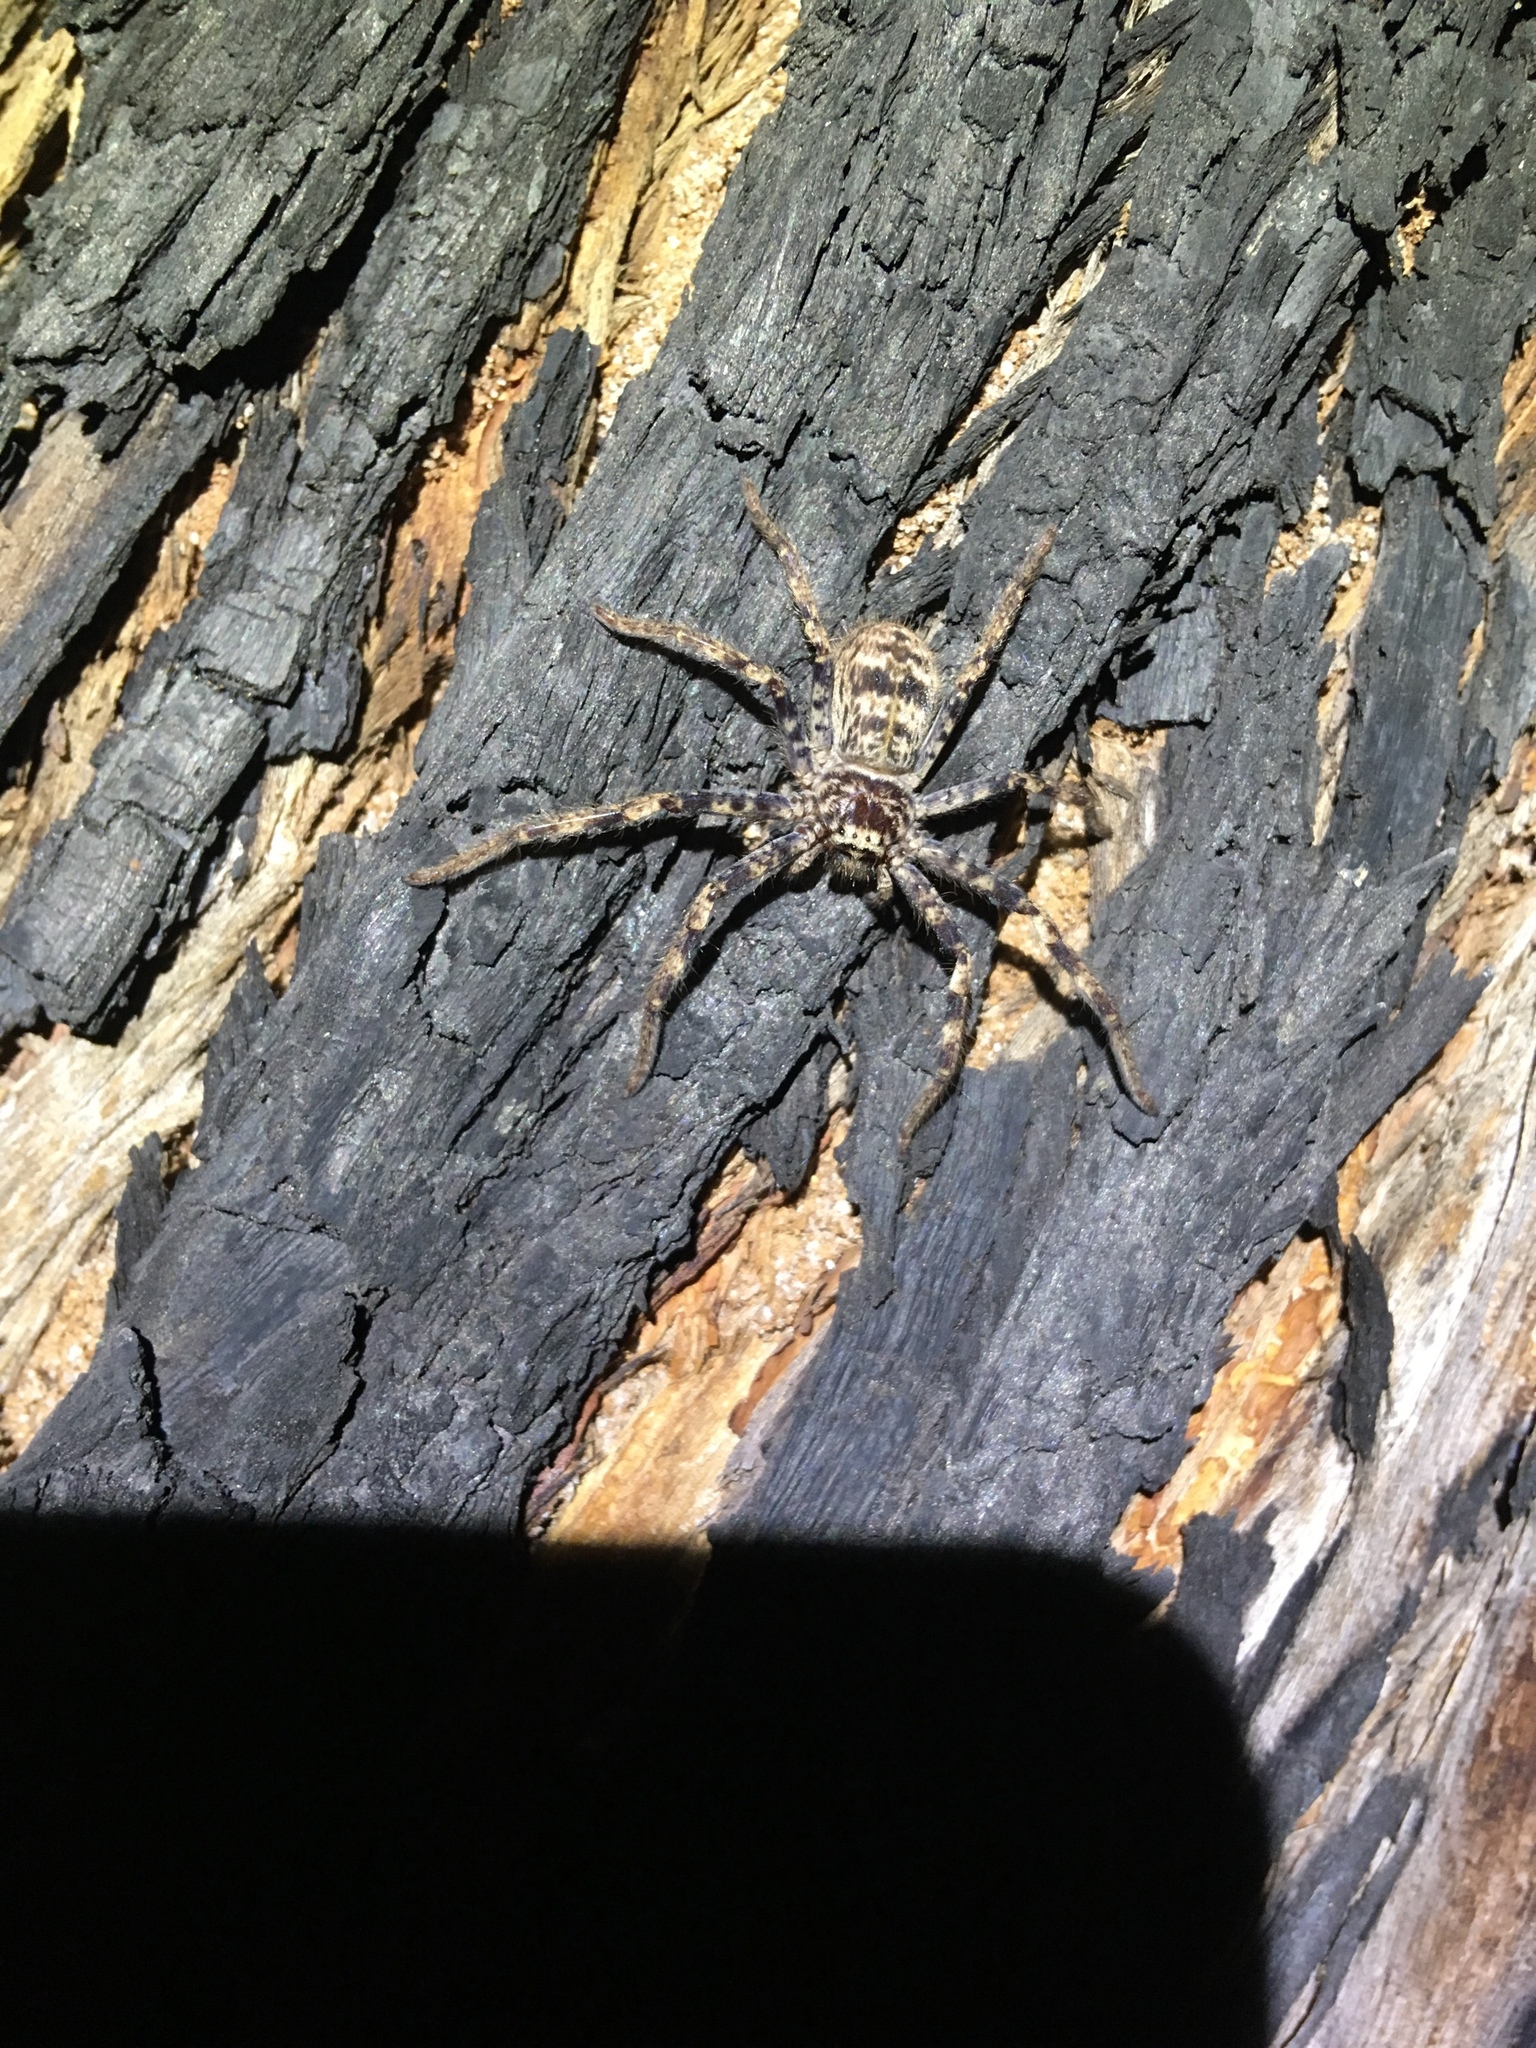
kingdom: Animalia
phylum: Arthropoda
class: Arachnida
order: Araneae
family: Sparassidae
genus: Holconia
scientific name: Holconia westralia
